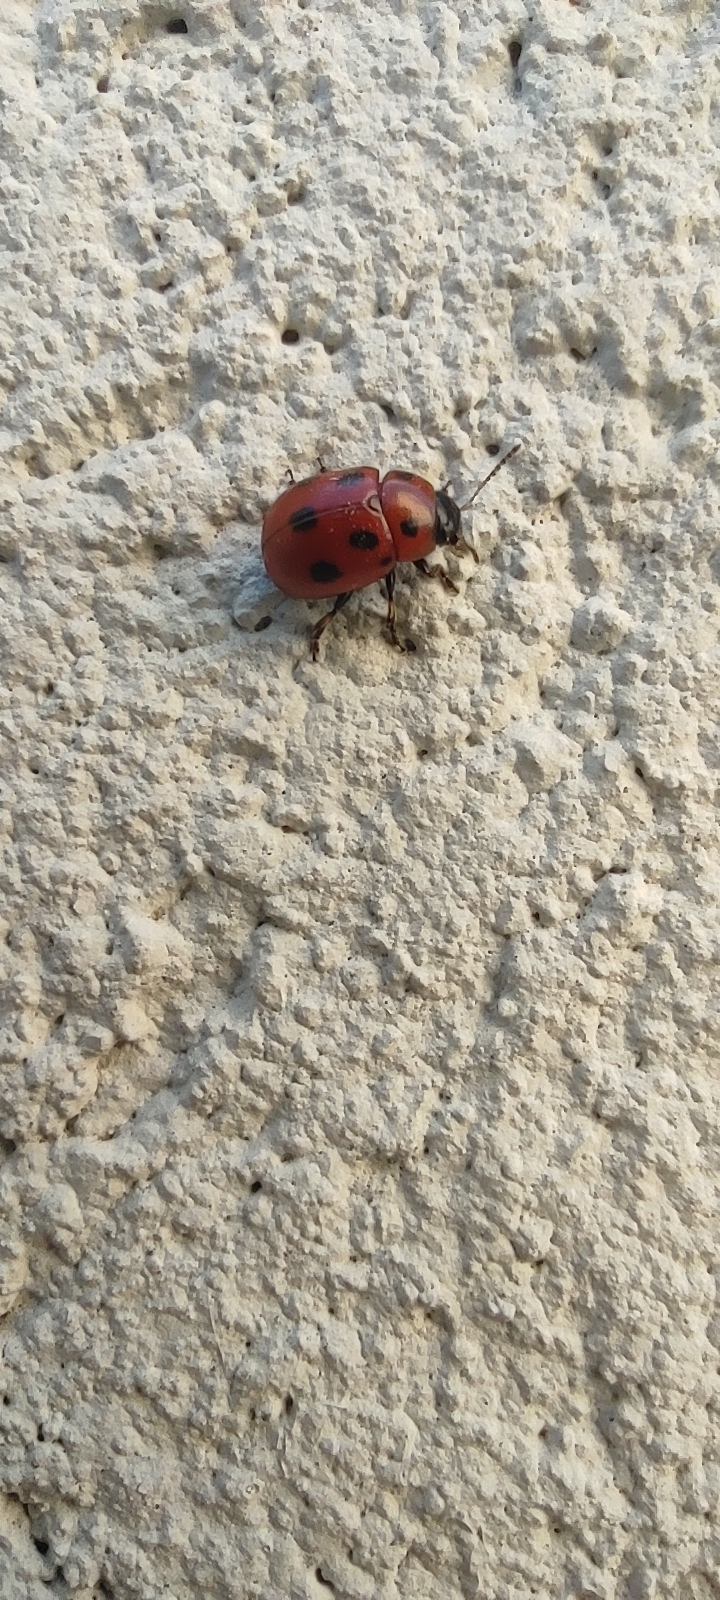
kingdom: Animalia
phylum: Arthropoda
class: Insecta
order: Coleoptera
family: Chrysomelidae
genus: Gonioctena
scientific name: Gonioctena fornicata
